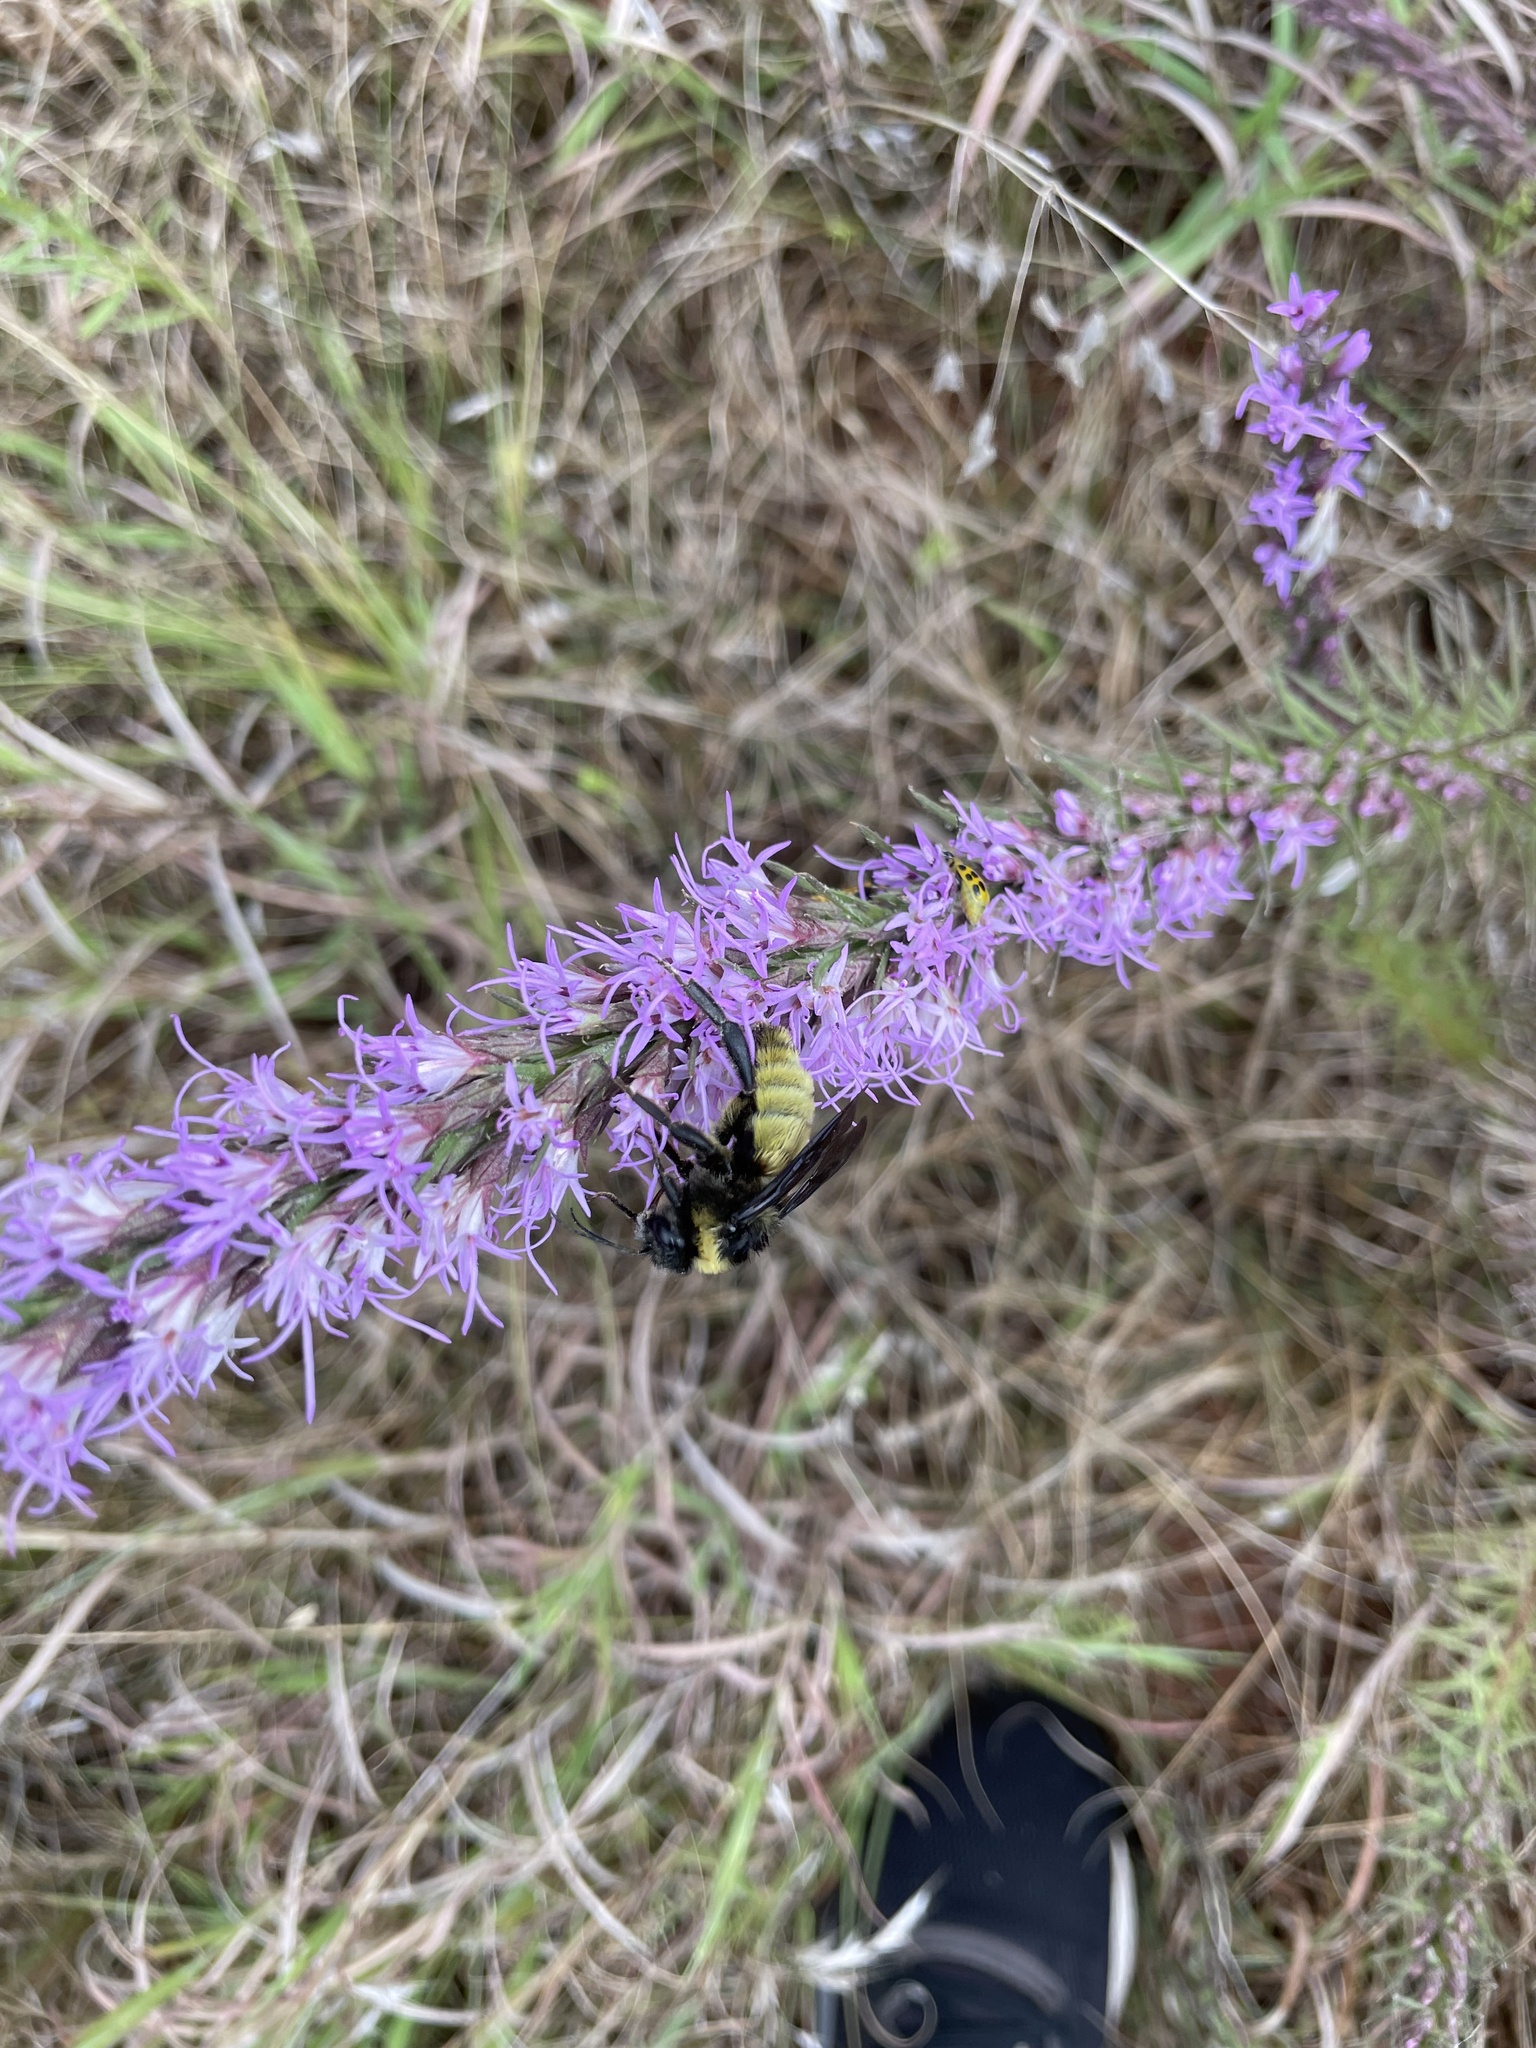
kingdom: Animalia
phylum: Arthropoda
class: Insecta
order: Hymenoptera
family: Apidae
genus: Bombus
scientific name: Bombus pensylvanicus
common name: Bumble bee
